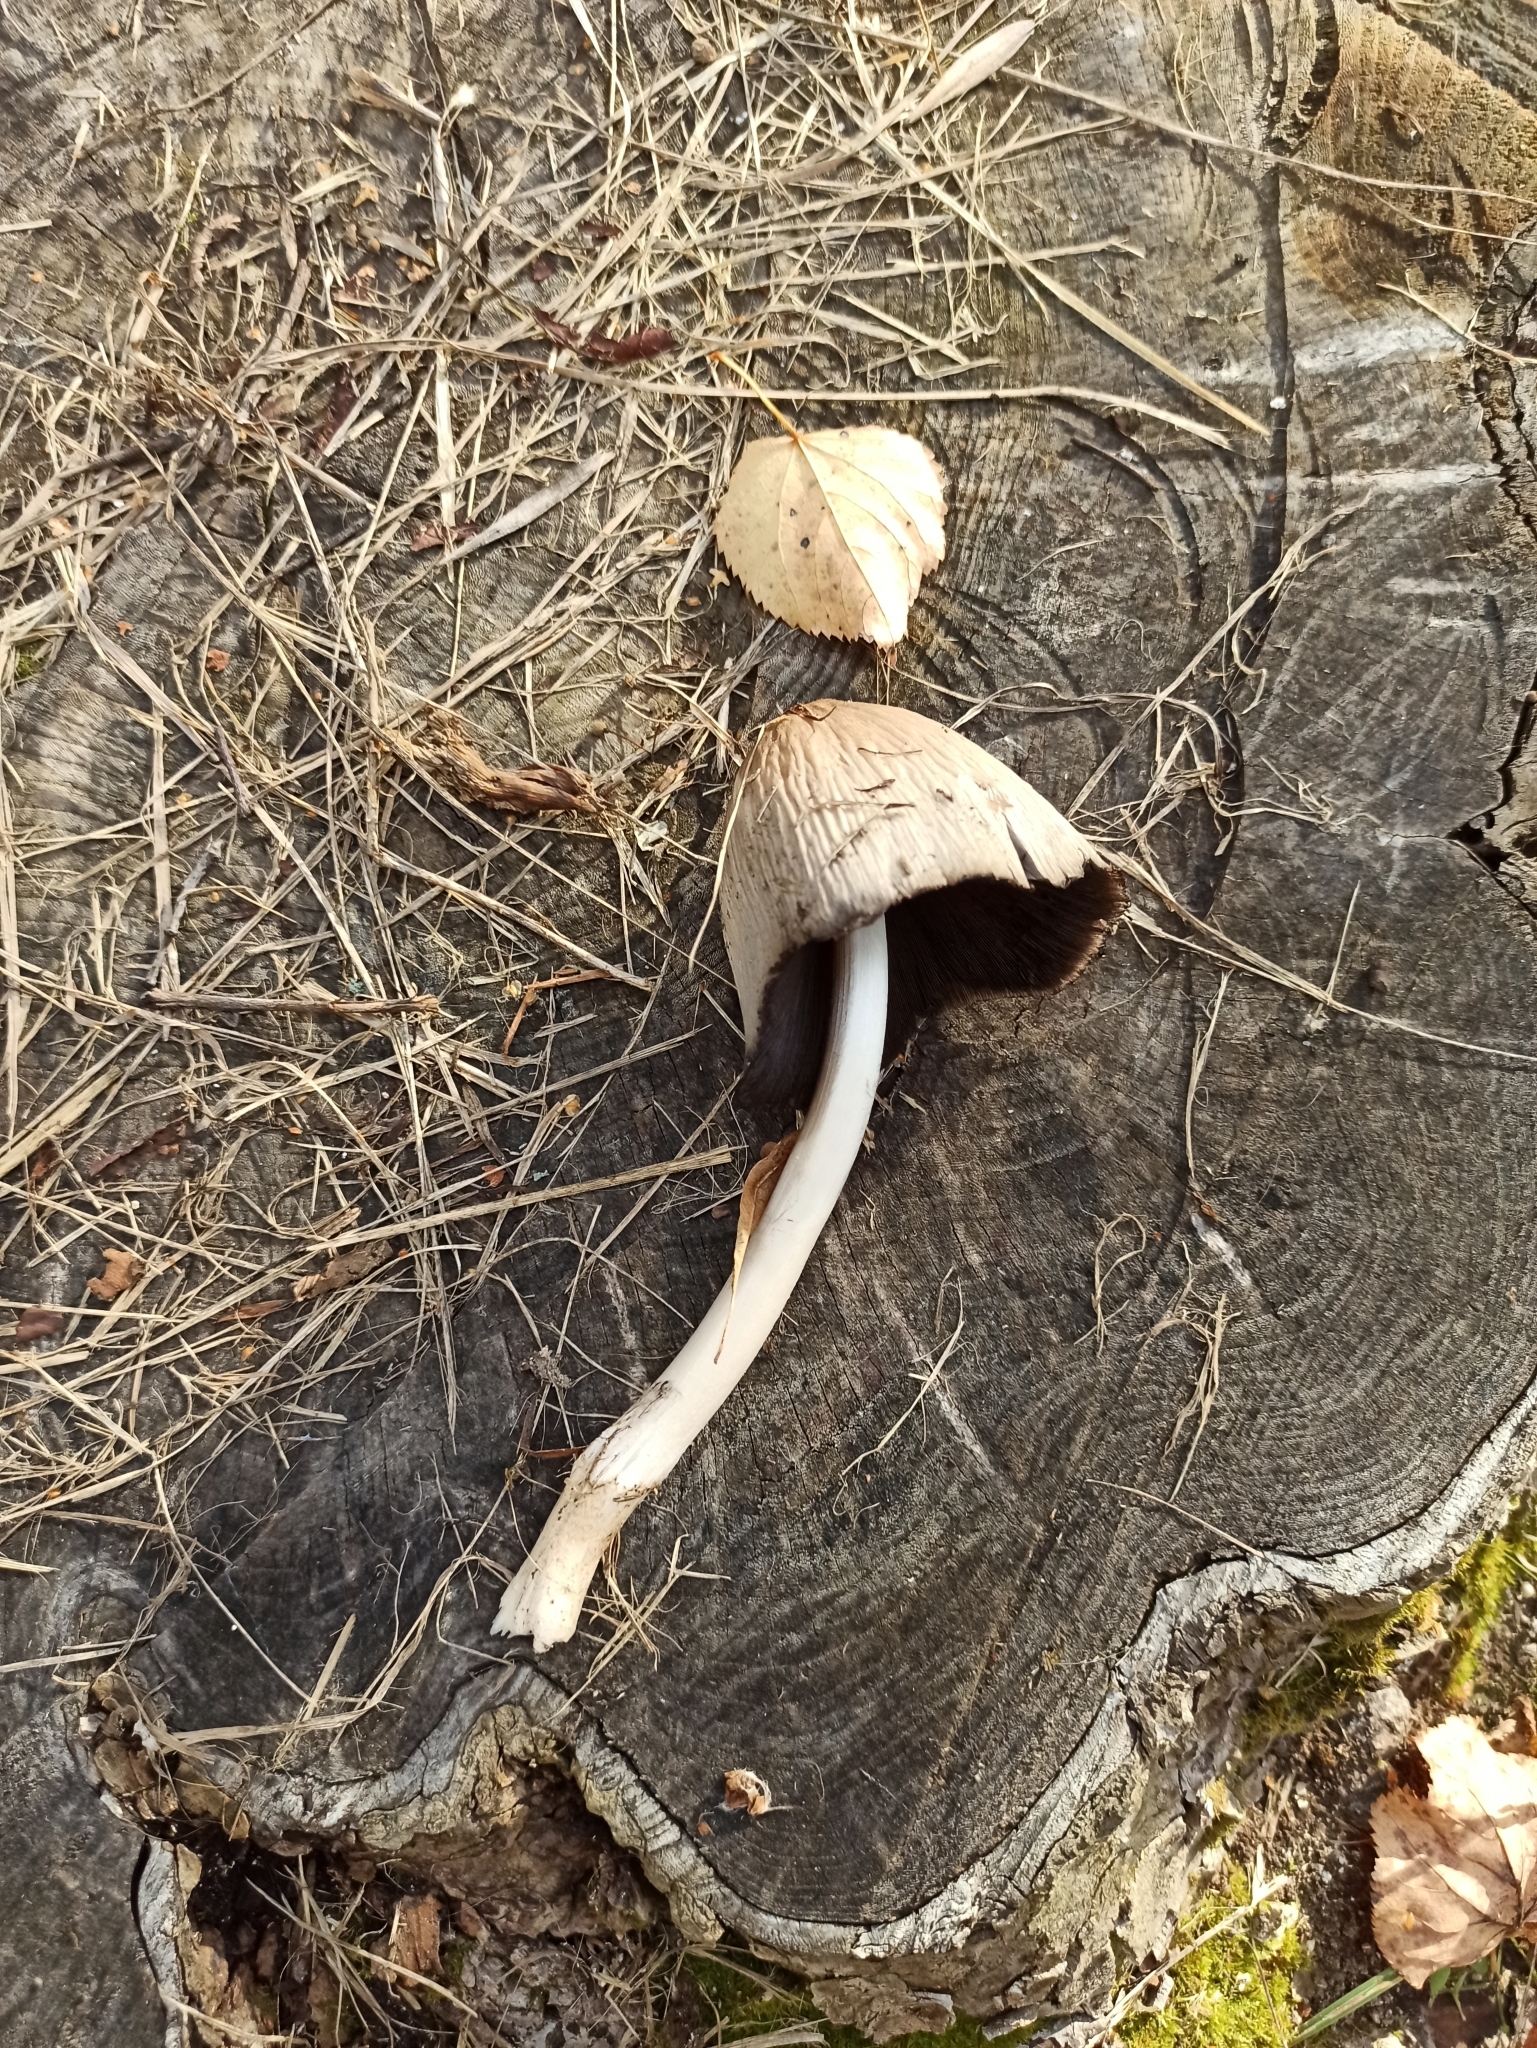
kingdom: Fungi
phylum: Basidiomycota
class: Agaricomycetes
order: Agaricales
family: Psathyrellaceae
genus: Coprinopsis
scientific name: Coprinopsis atramentaria
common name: Common ink-cap
